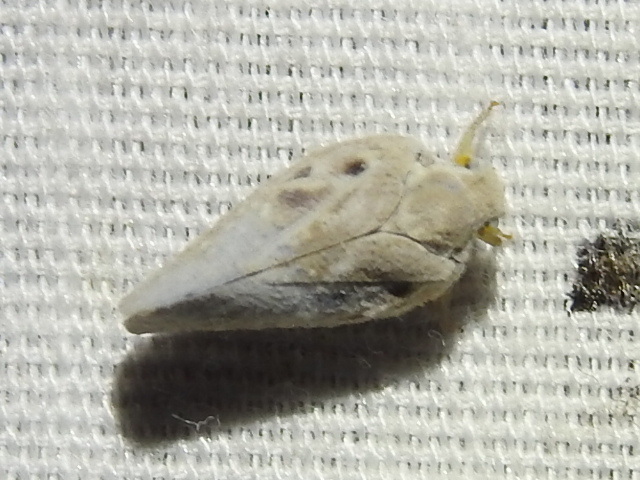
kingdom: Animalia
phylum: Arthropoda
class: Insecta
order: Hemiptera
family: Flatidae
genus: Metcalfa
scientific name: Metcalfa pruinosa
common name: Citrus flatid planthopper
